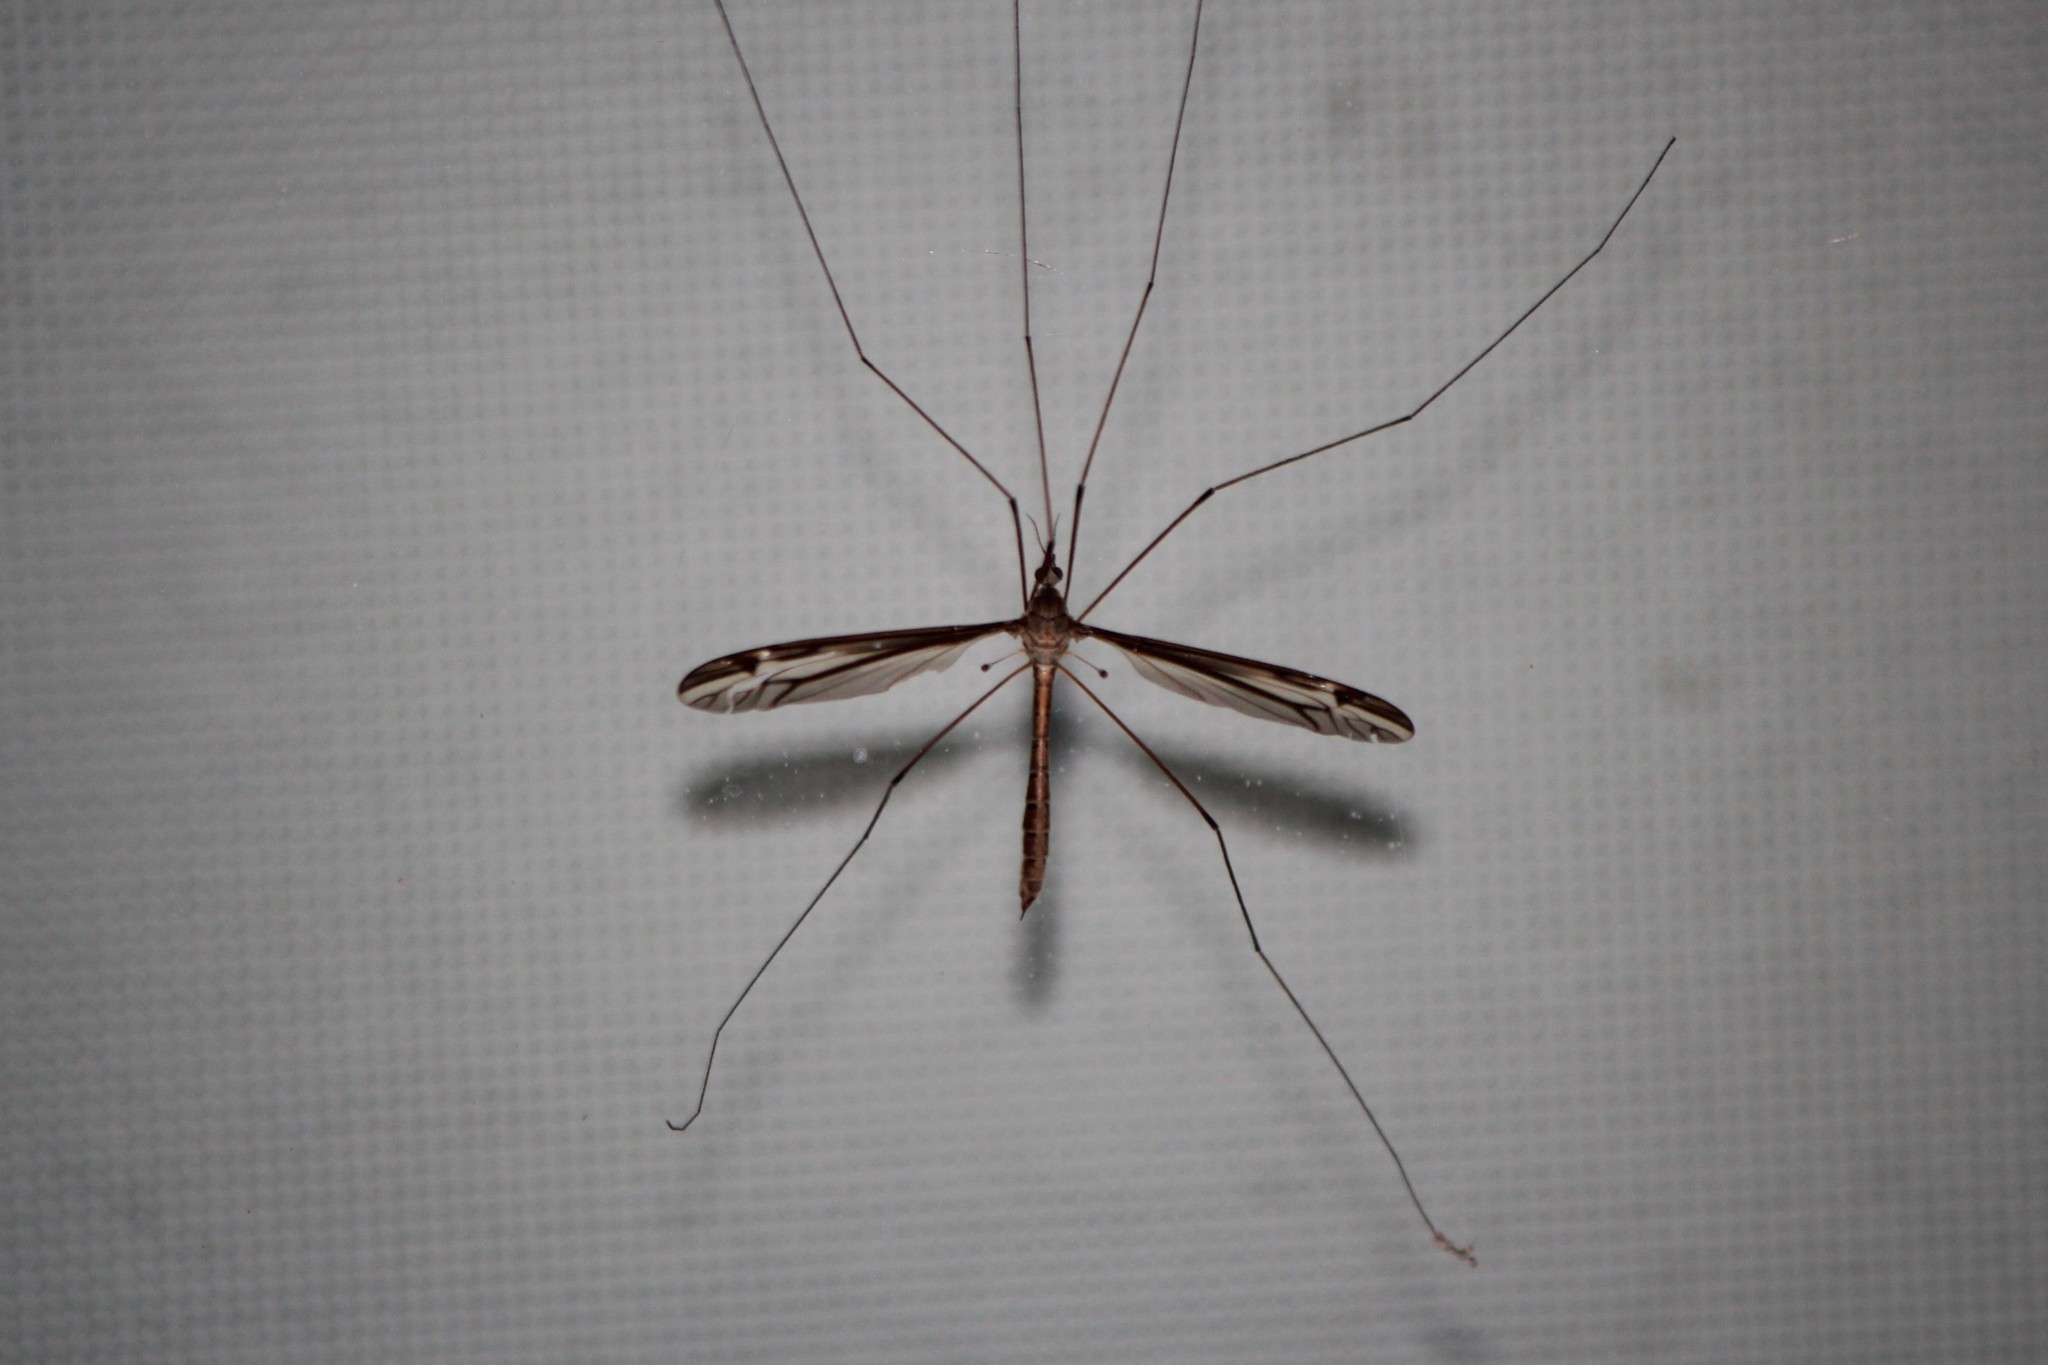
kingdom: Animalia
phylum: Arthropoda
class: Insecta
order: Diptera
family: Tipulidae
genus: Tipula
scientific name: Tipula furca
